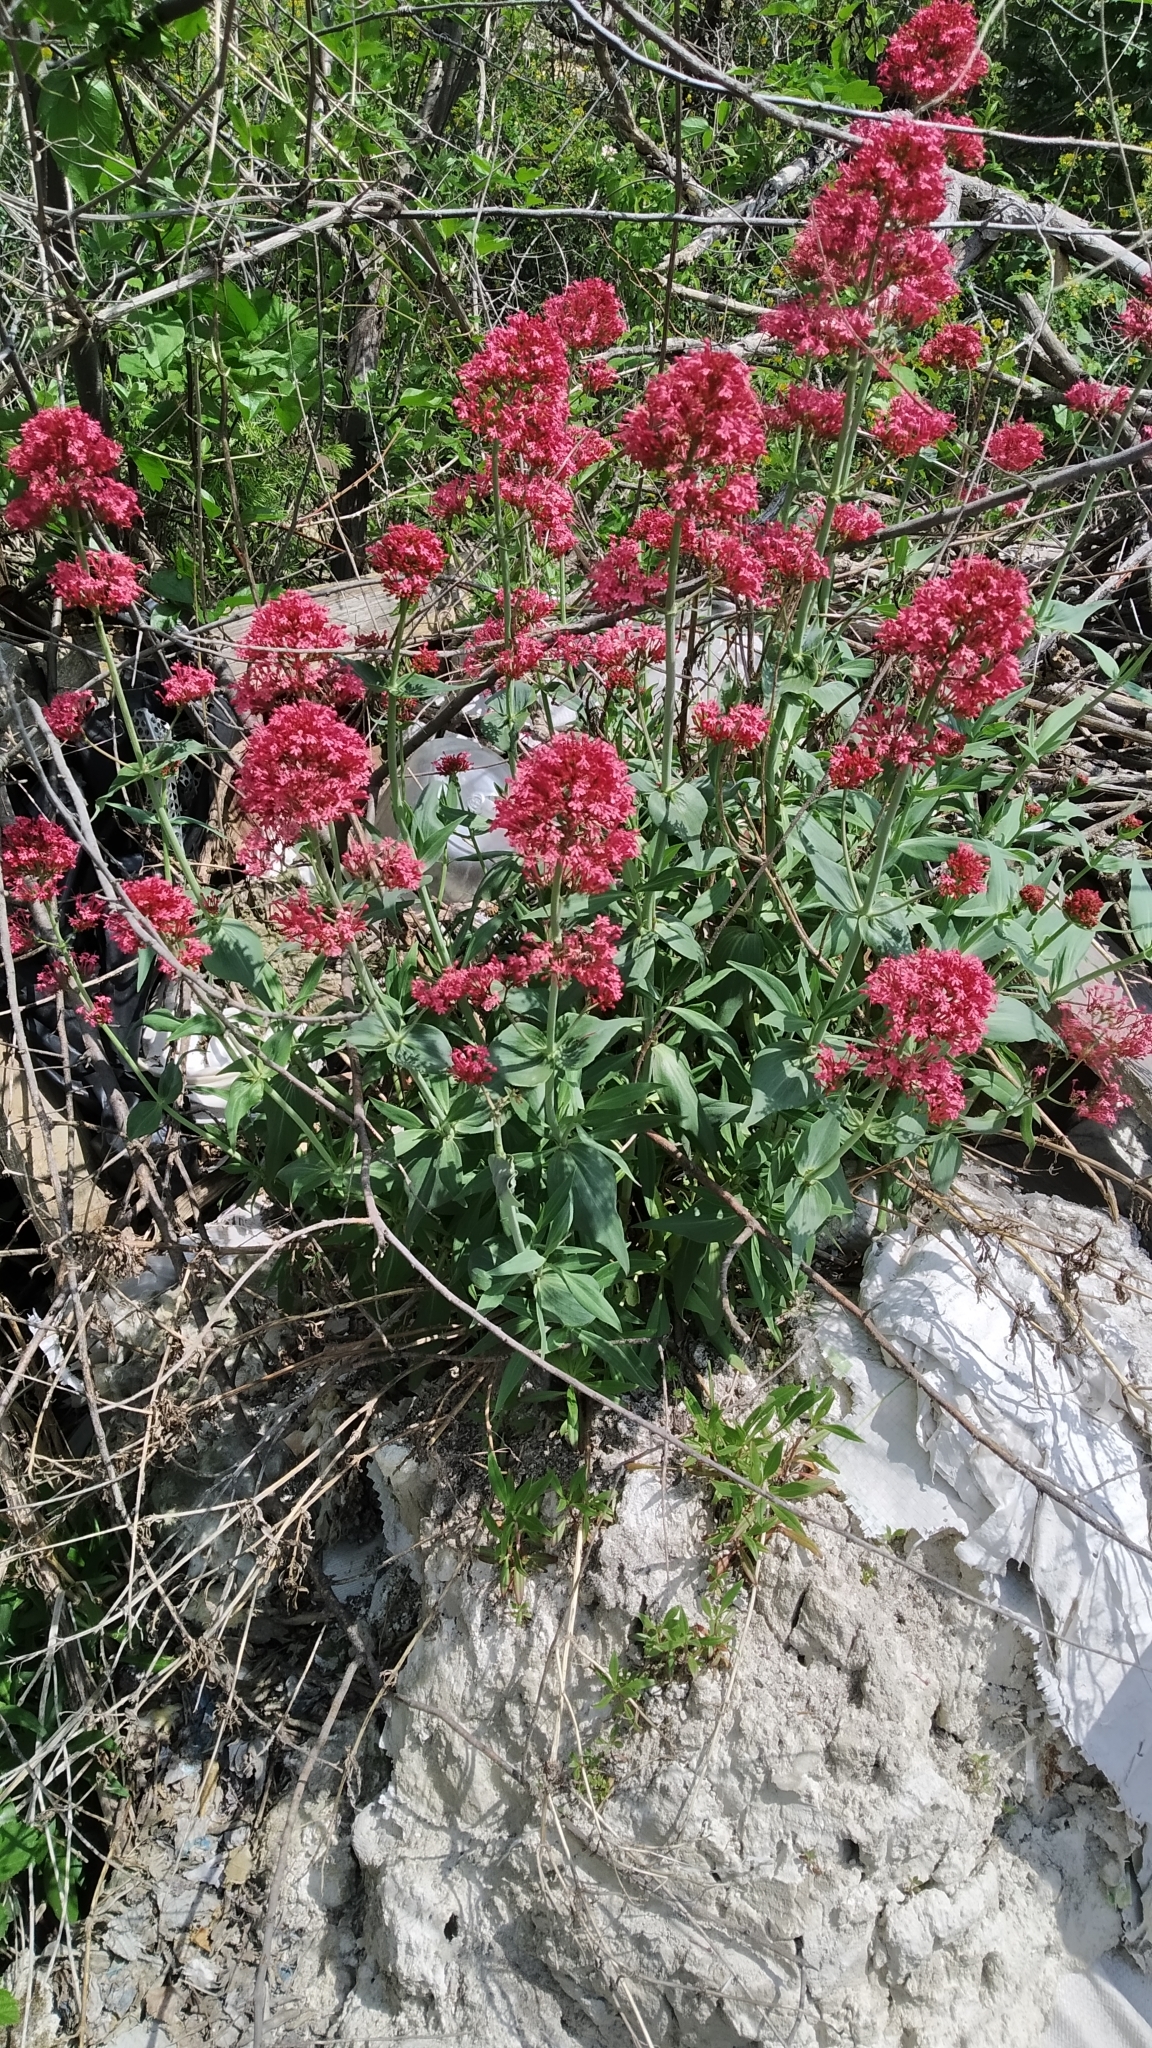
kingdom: Plantae
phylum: Tracheophyta
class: Magnoliopsida
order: Dipsacales
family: Caprifoliaceae
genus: Centranthus
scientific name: Centranthus ruber
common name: Red valerian
